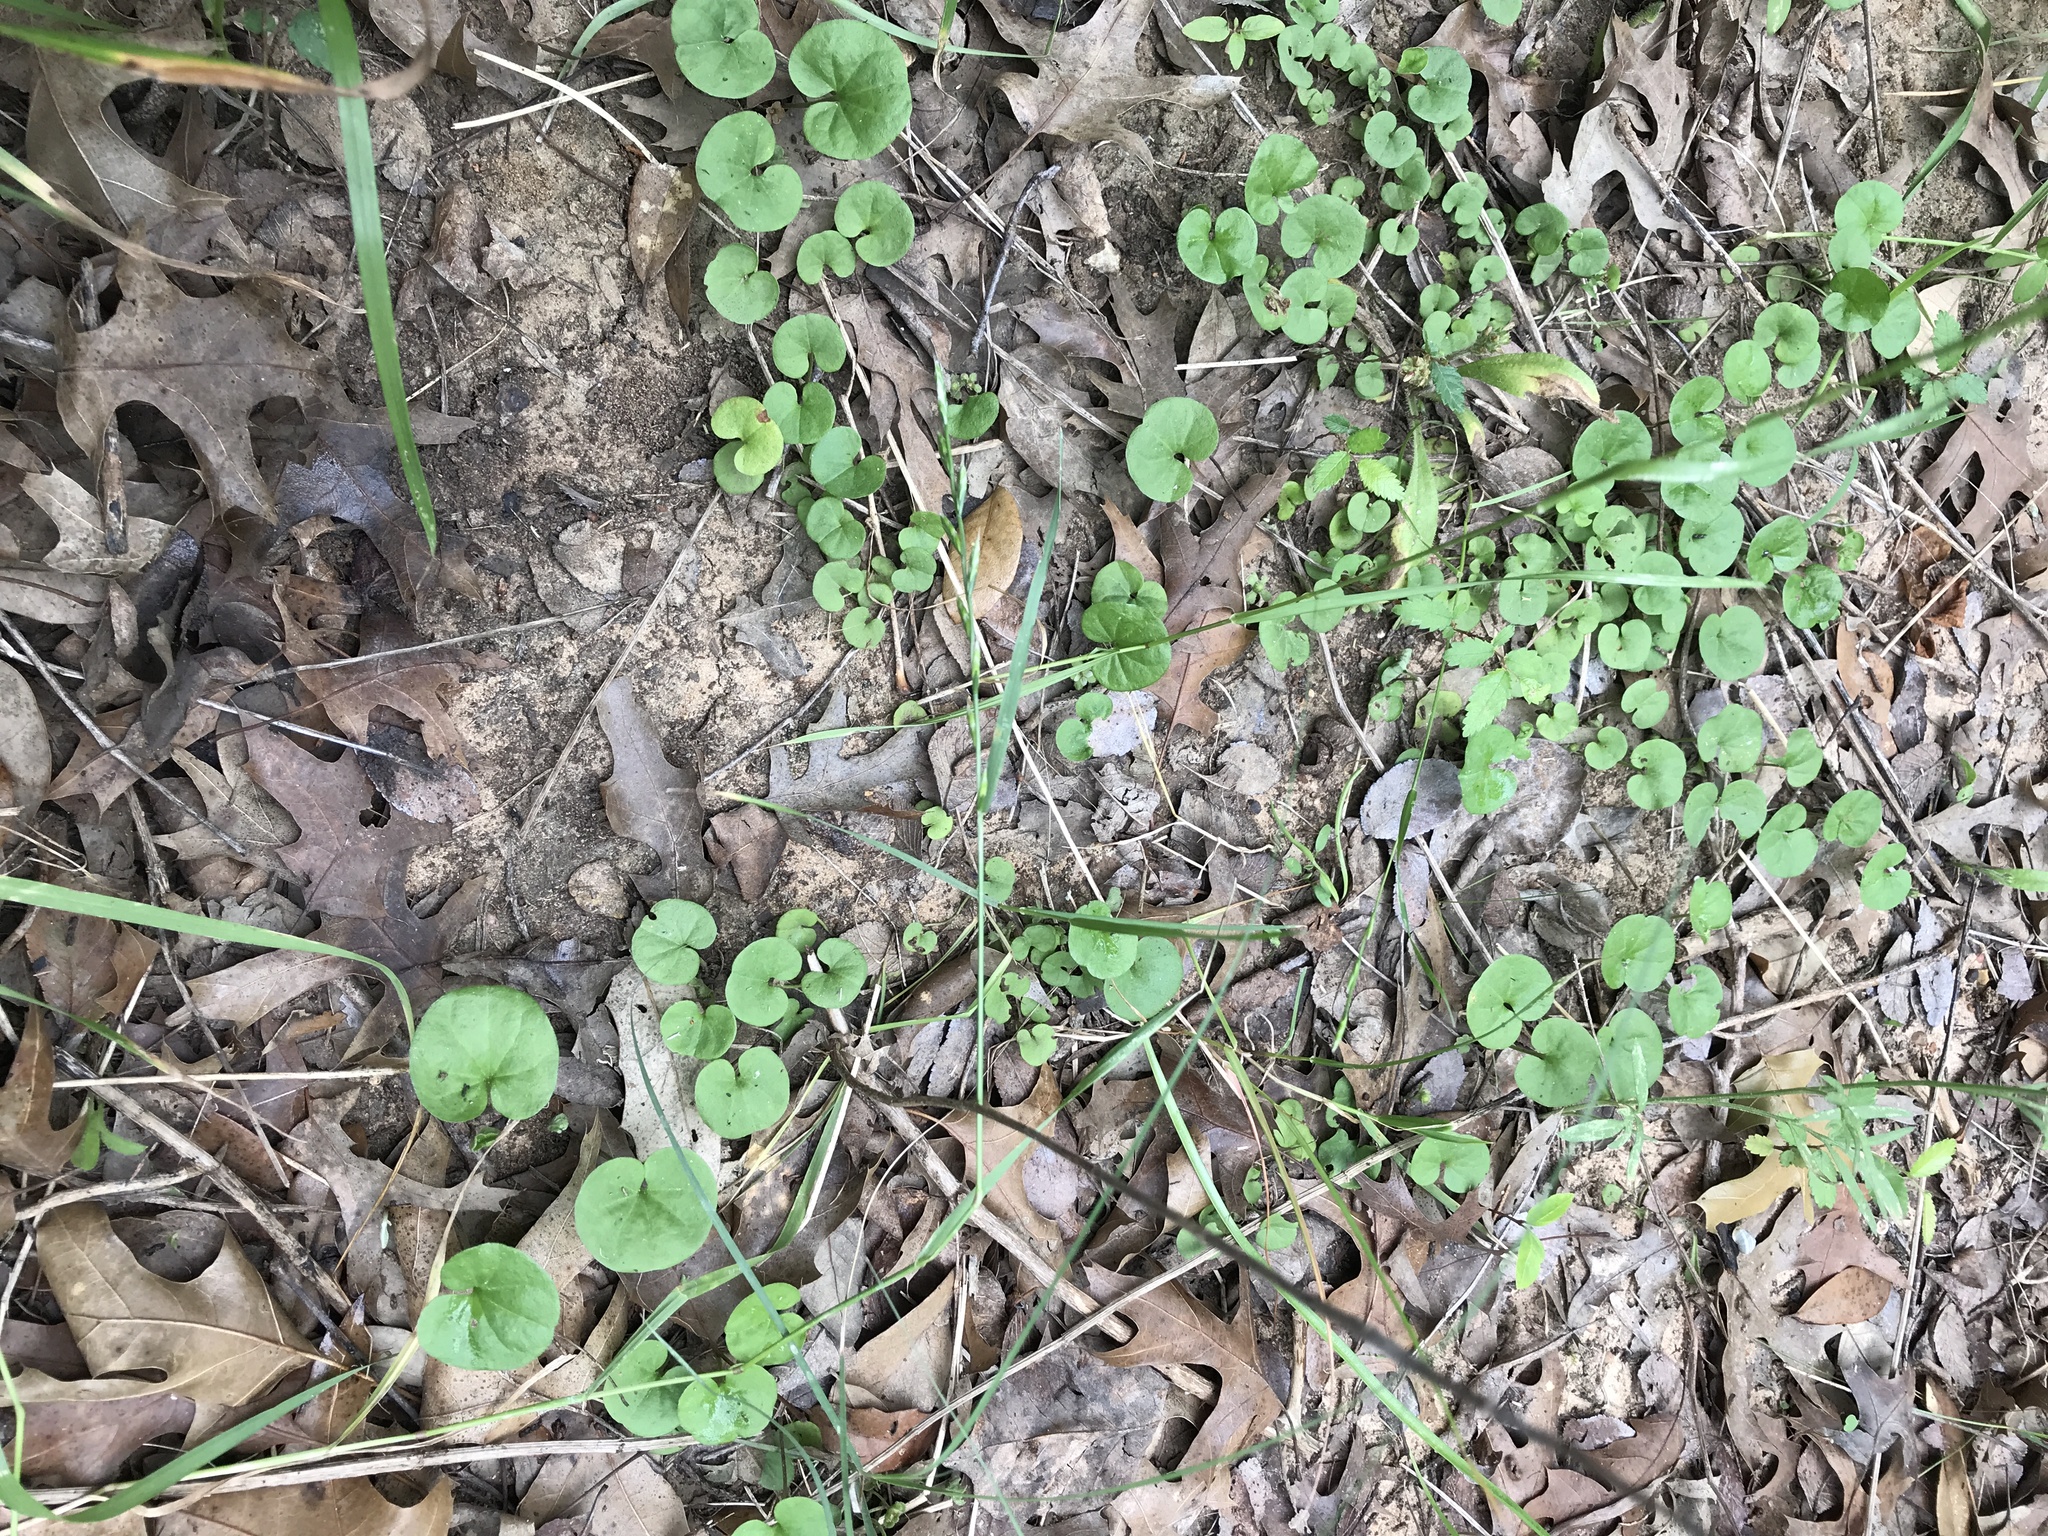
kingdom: Plantae
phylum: Tracheophyta
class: Magnoliopsida
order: Solanales
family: Convolvulaceae
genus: Dichondra
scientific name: Dichondra carolinensis
